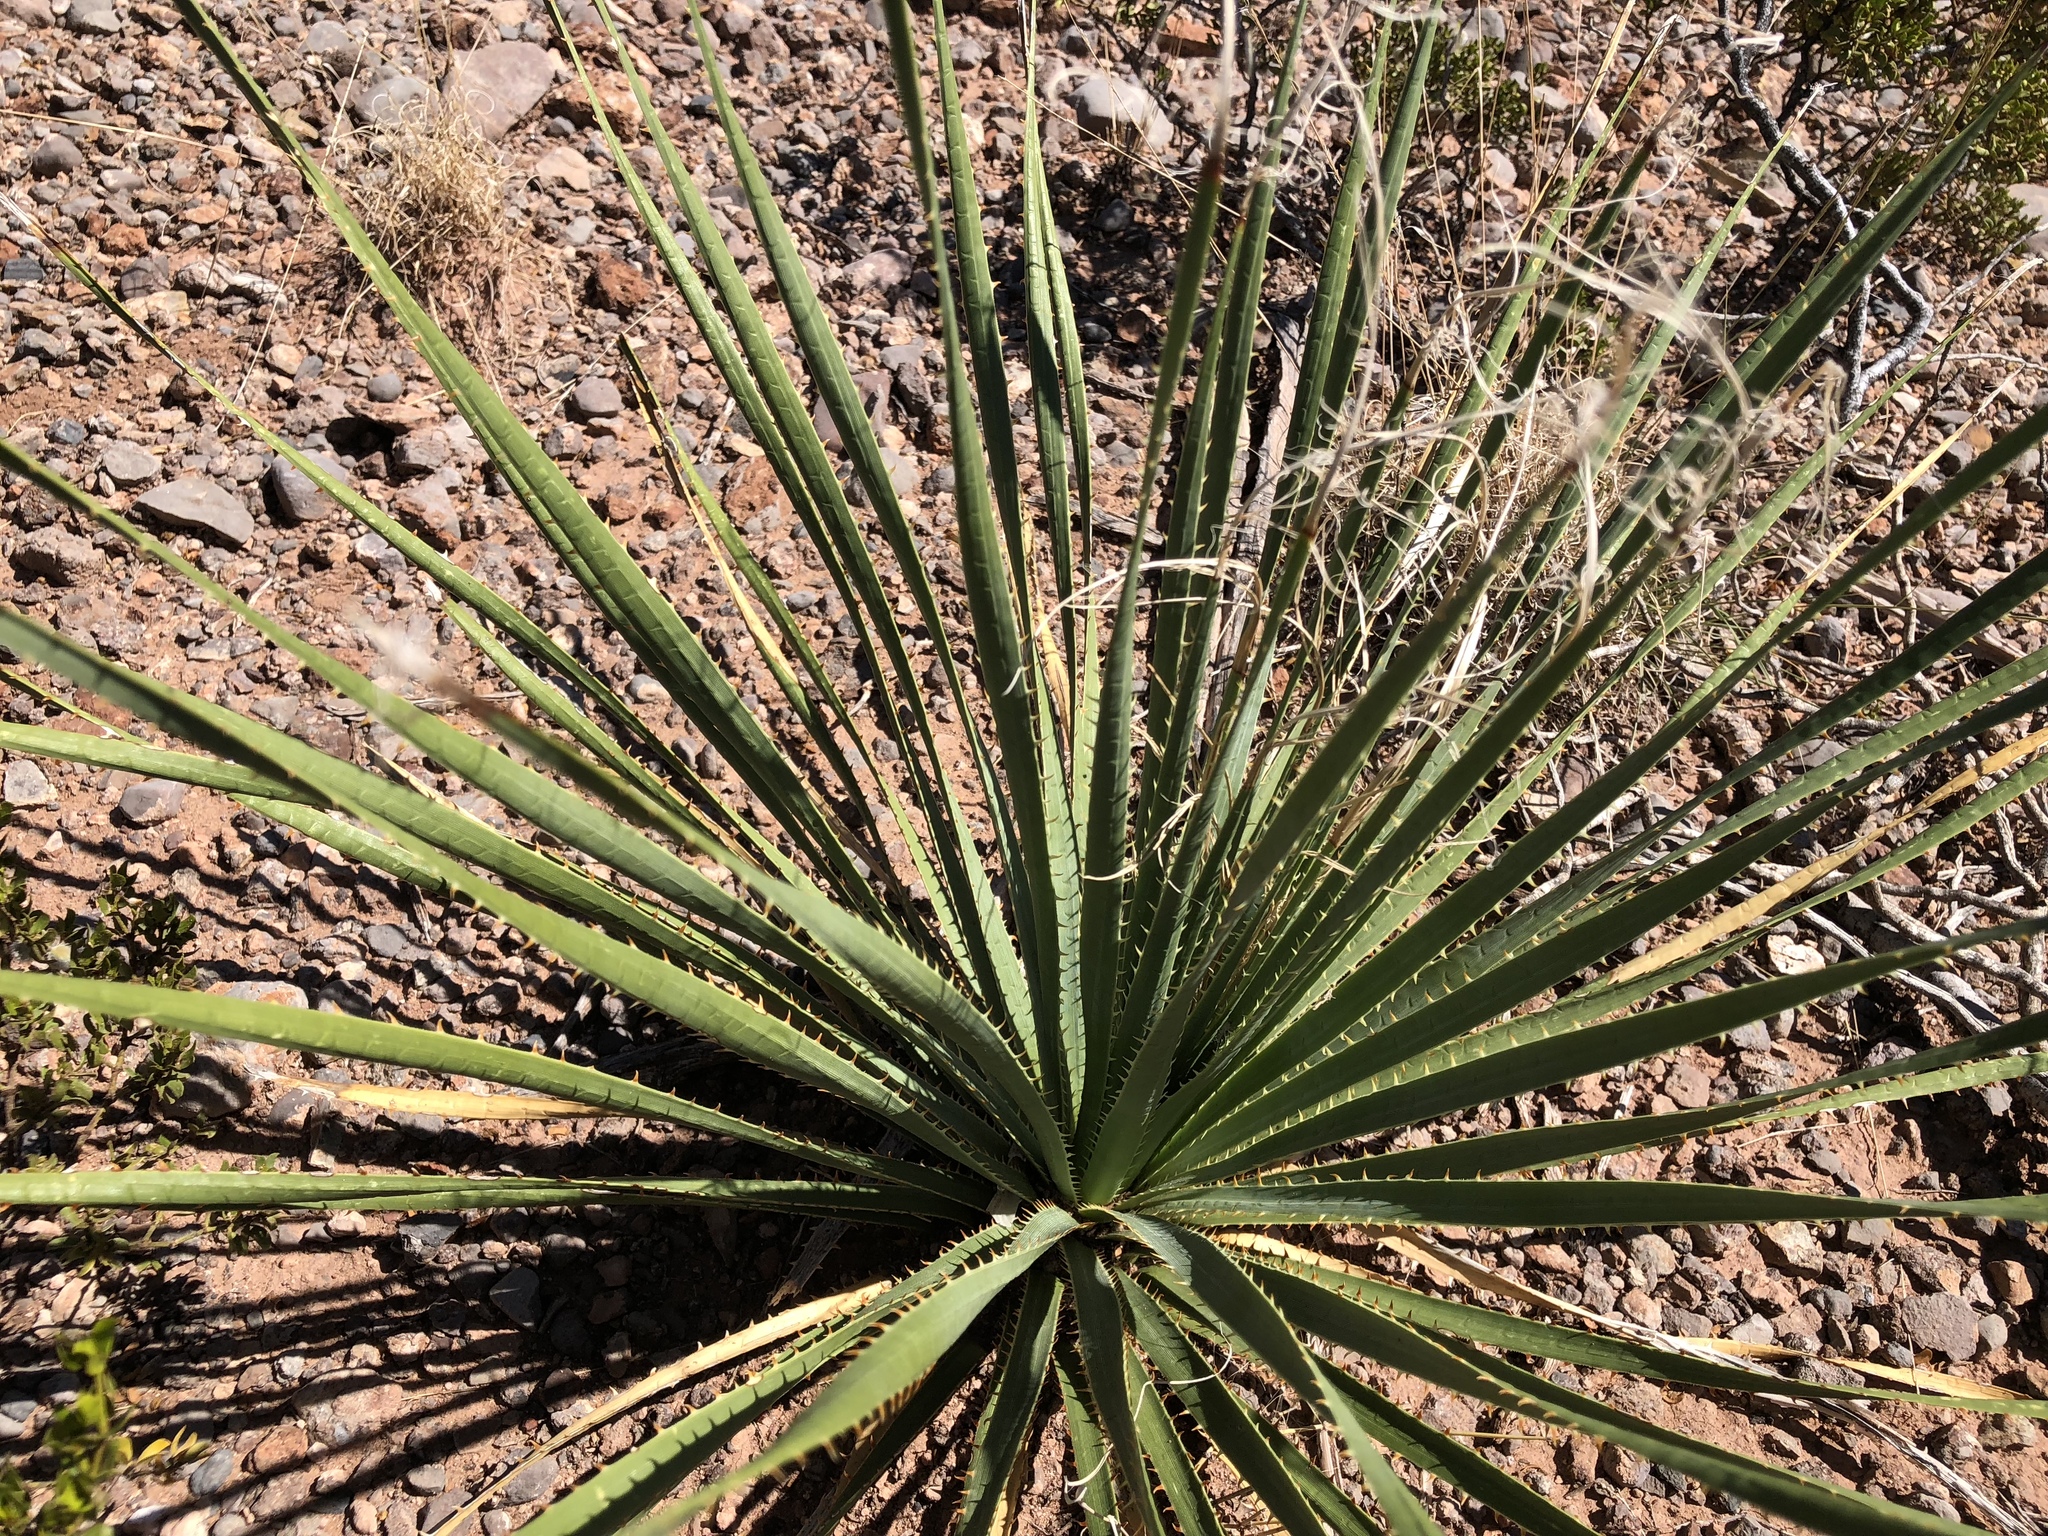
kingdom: Plantae
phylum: Tracheophyta
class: Liliopsida
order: Asparagales
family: Asparagaceae
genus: Dasylirion
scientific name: Dasylirion wheeleri
